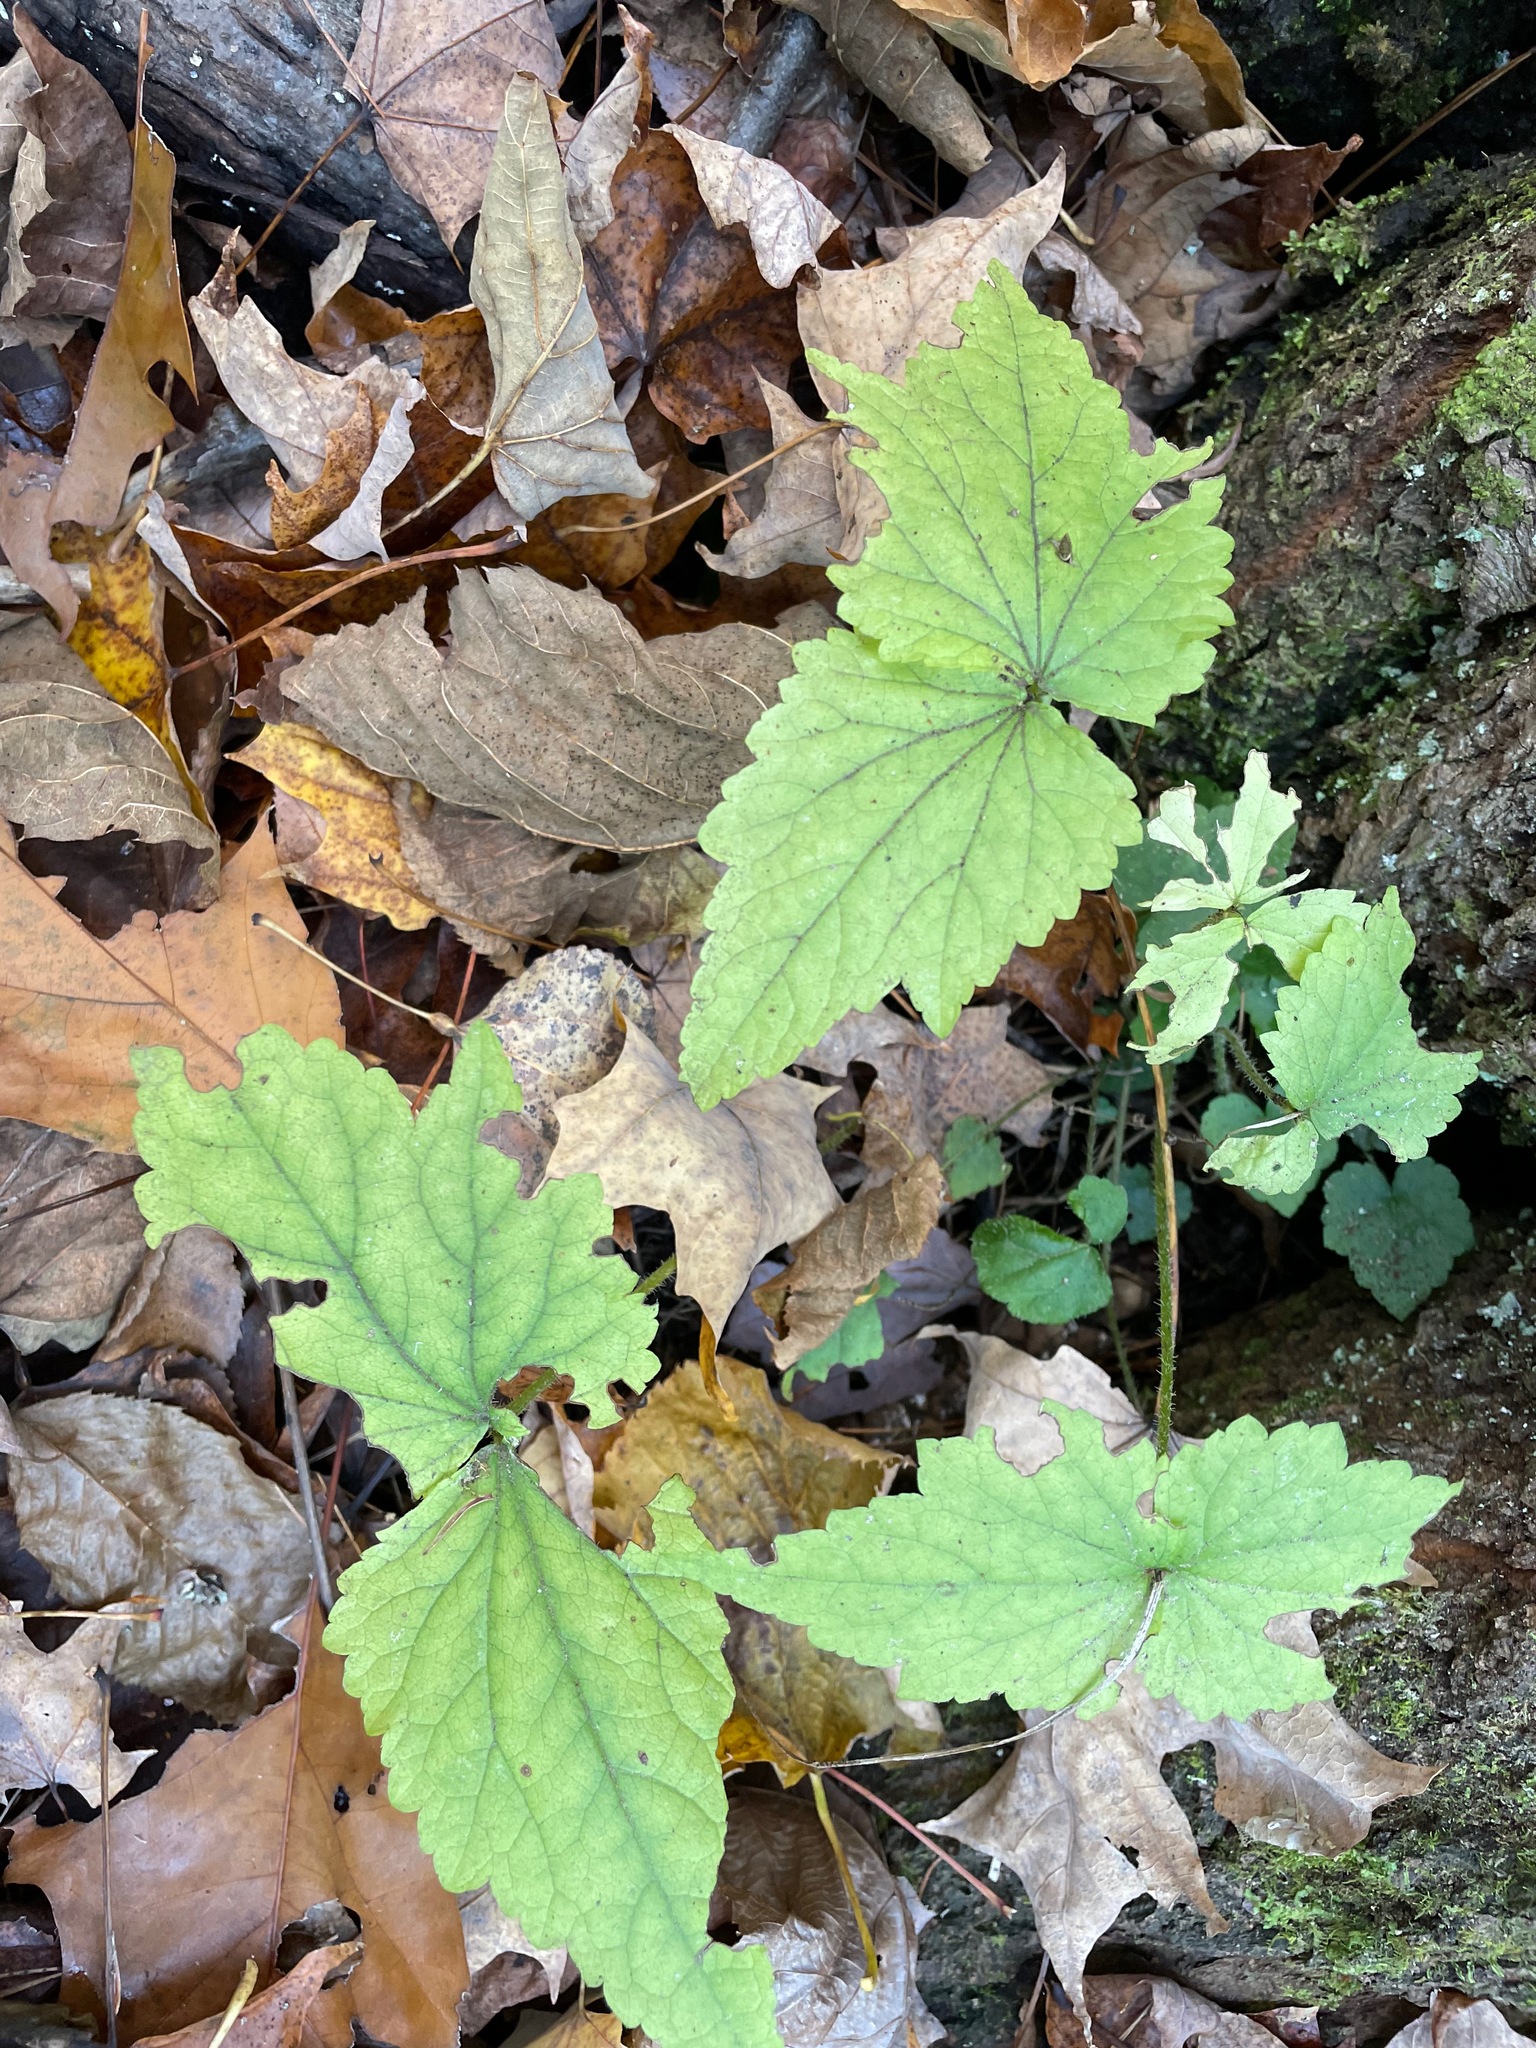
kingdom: Plantae
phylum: Tracheophyta
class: Magnoliopsida
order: Saxifragales
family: Saxifragaceae
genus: Mitella
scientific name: Mitella diphylla
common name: Coolwort
